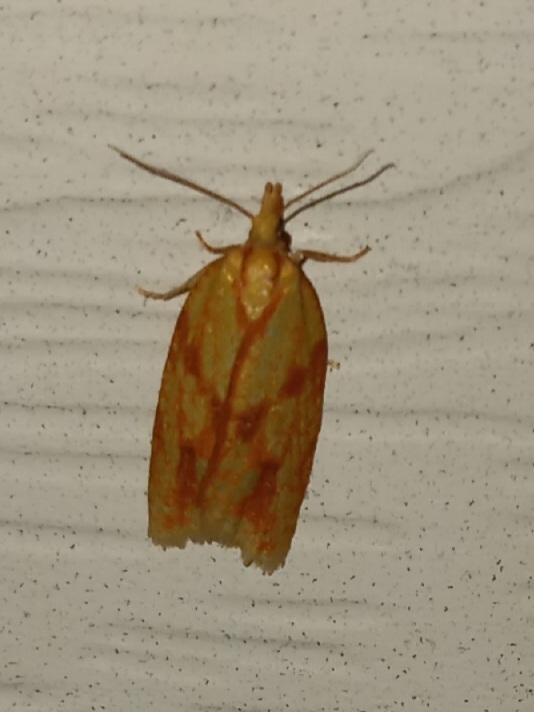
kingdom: Animalia
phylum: Arthropoda
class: Insecta
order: Lepidoptera
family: Tortricidae
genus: Sparganothis
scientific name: Sparganothis sulfureana
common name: Sparganothis fruitworm moth
